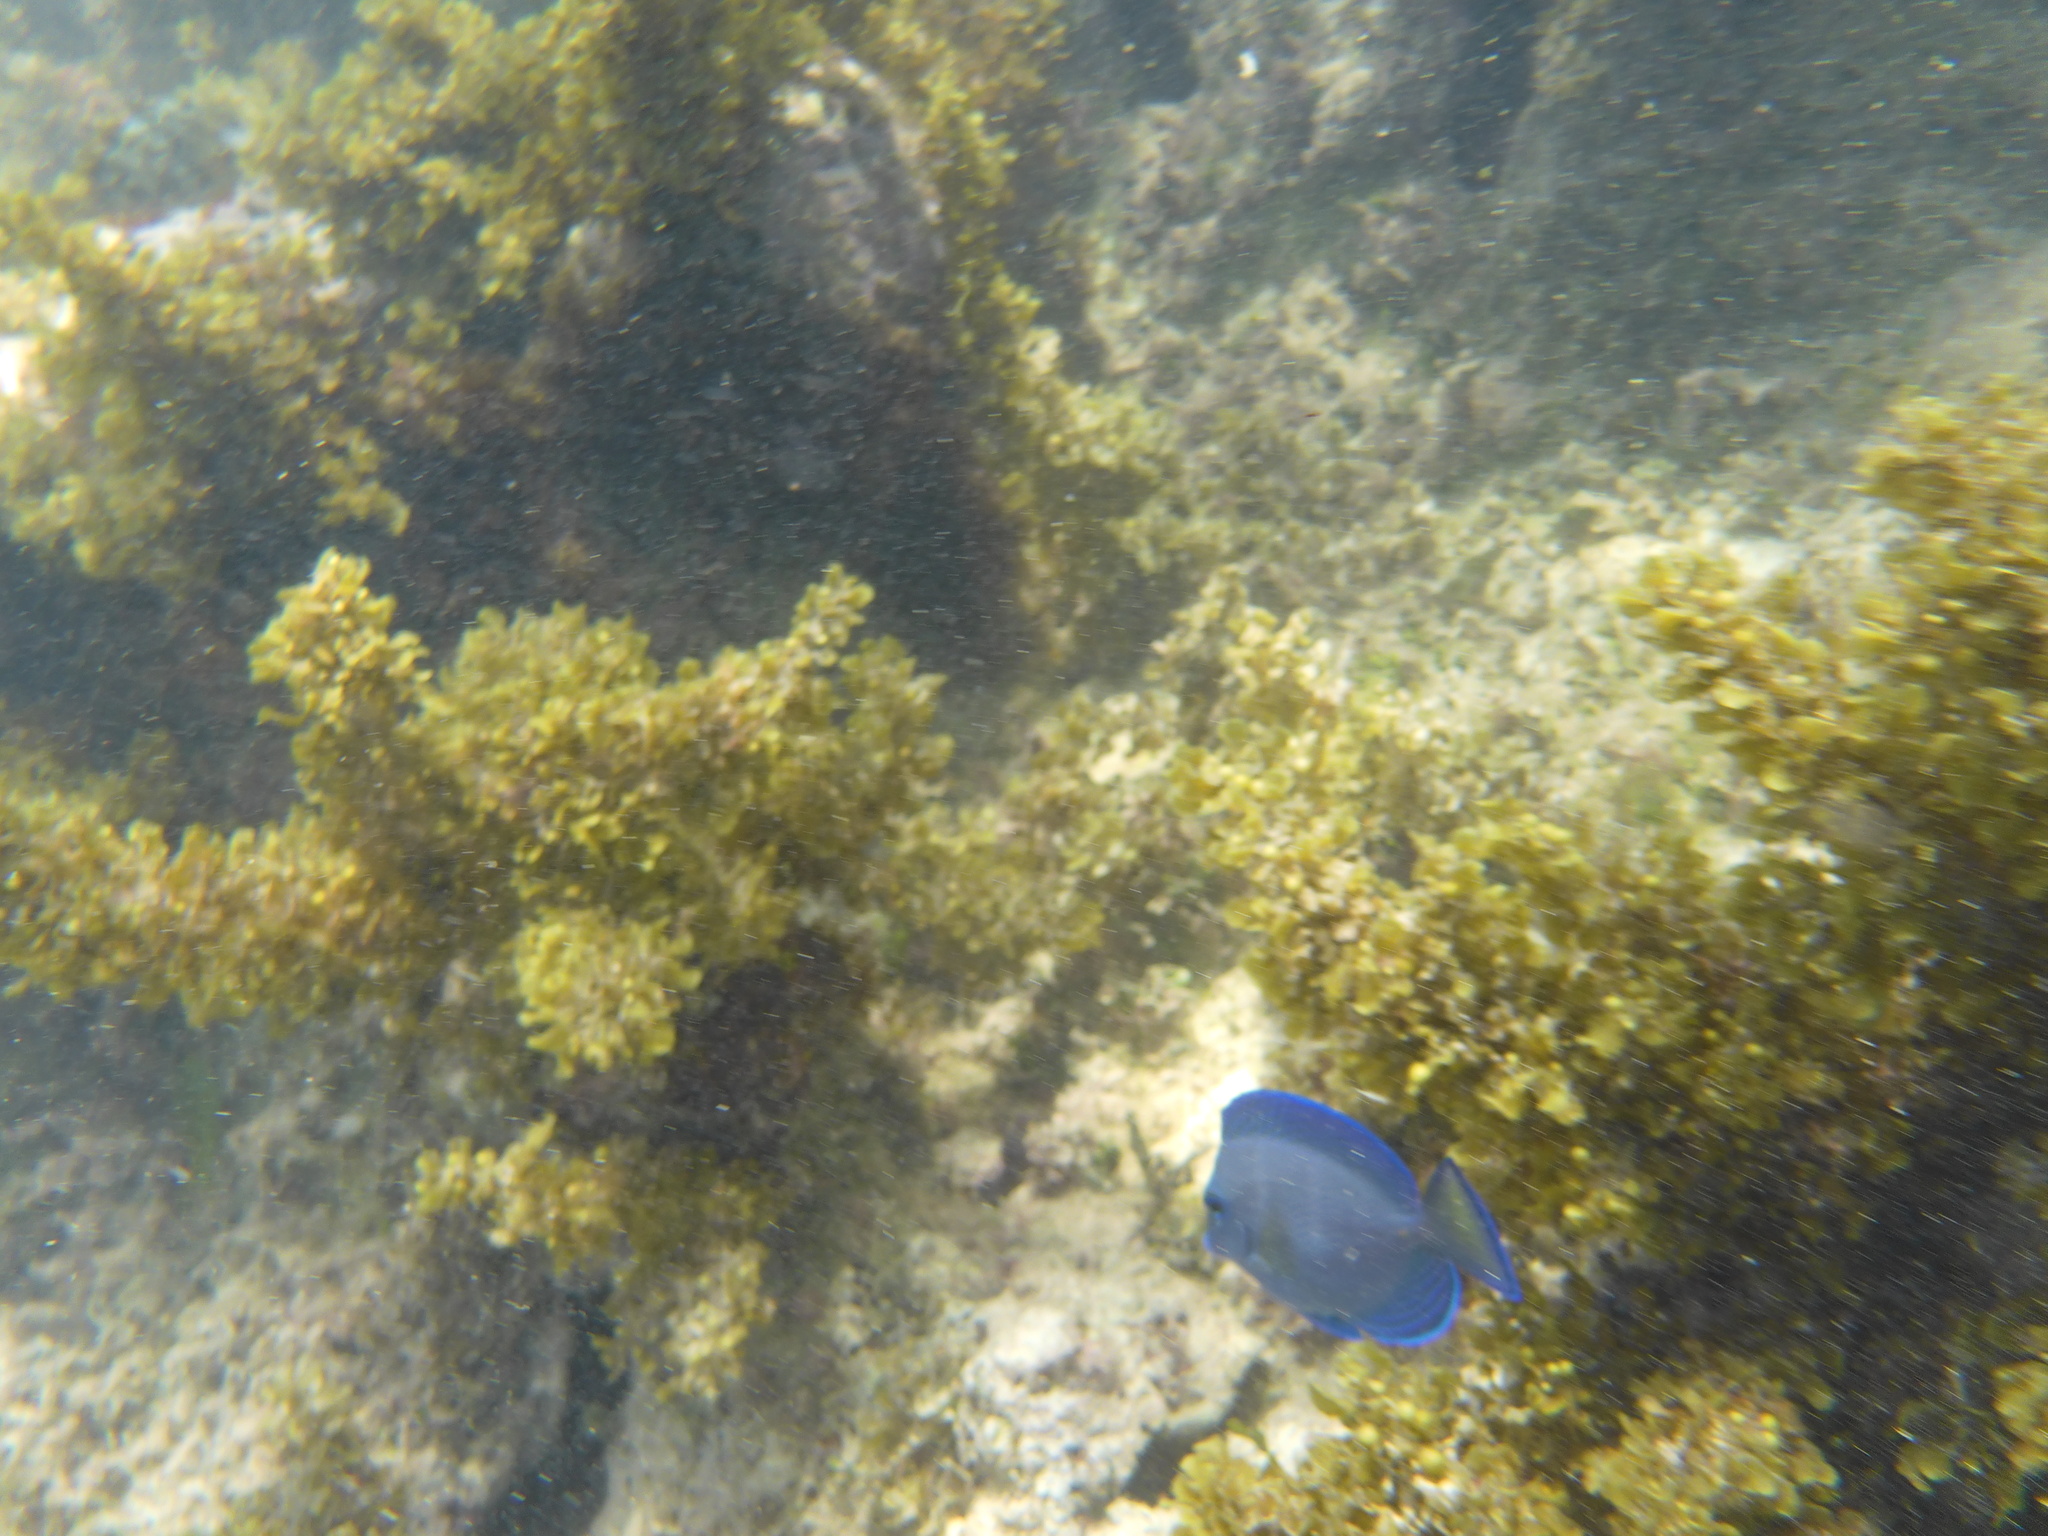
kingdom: Animalia
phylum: Chordata
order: Perciformes
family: Acanthuridae
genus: Acanthurus
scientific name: Acanthurus coeruleus
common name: Blue tang
